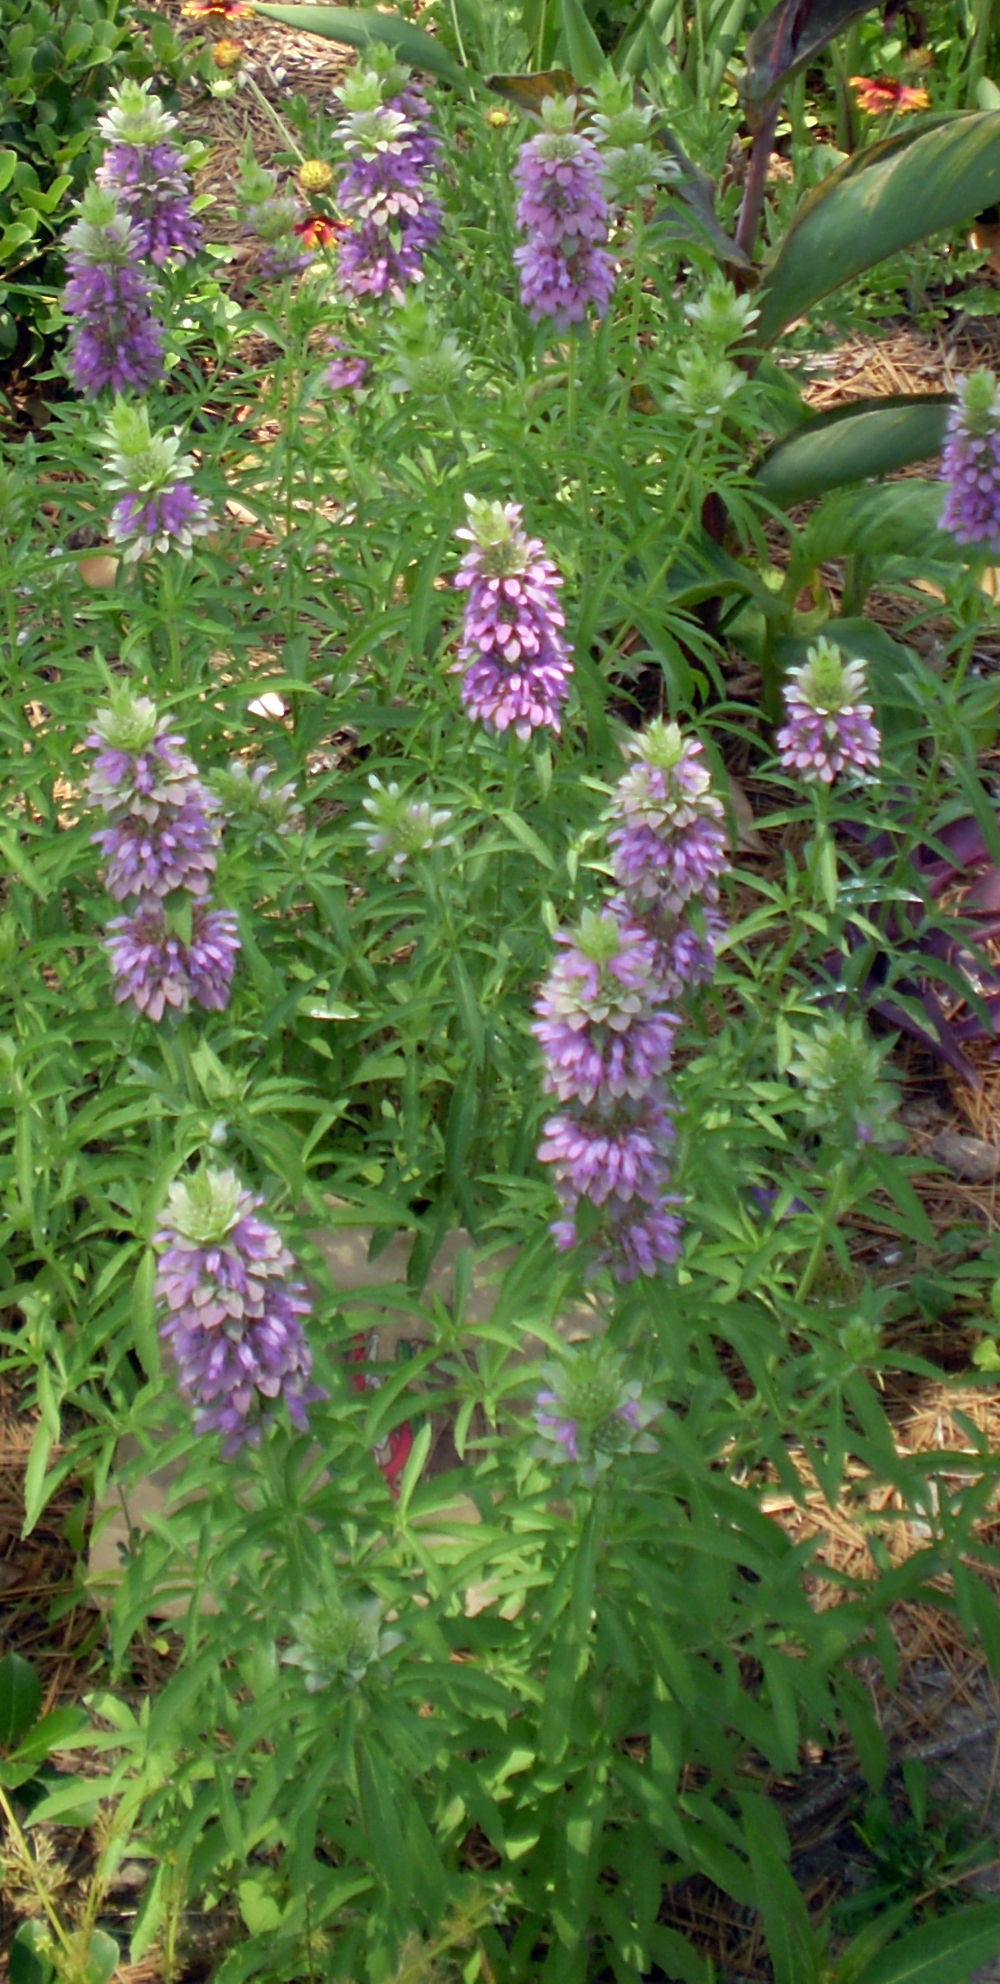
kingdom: Plantae
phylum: Tracheophyta
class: Magnoliopsida
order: Lamiales
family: Lamiaceae
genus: Monarda
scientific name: Monarda citriodora
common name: Lemon beebalm
